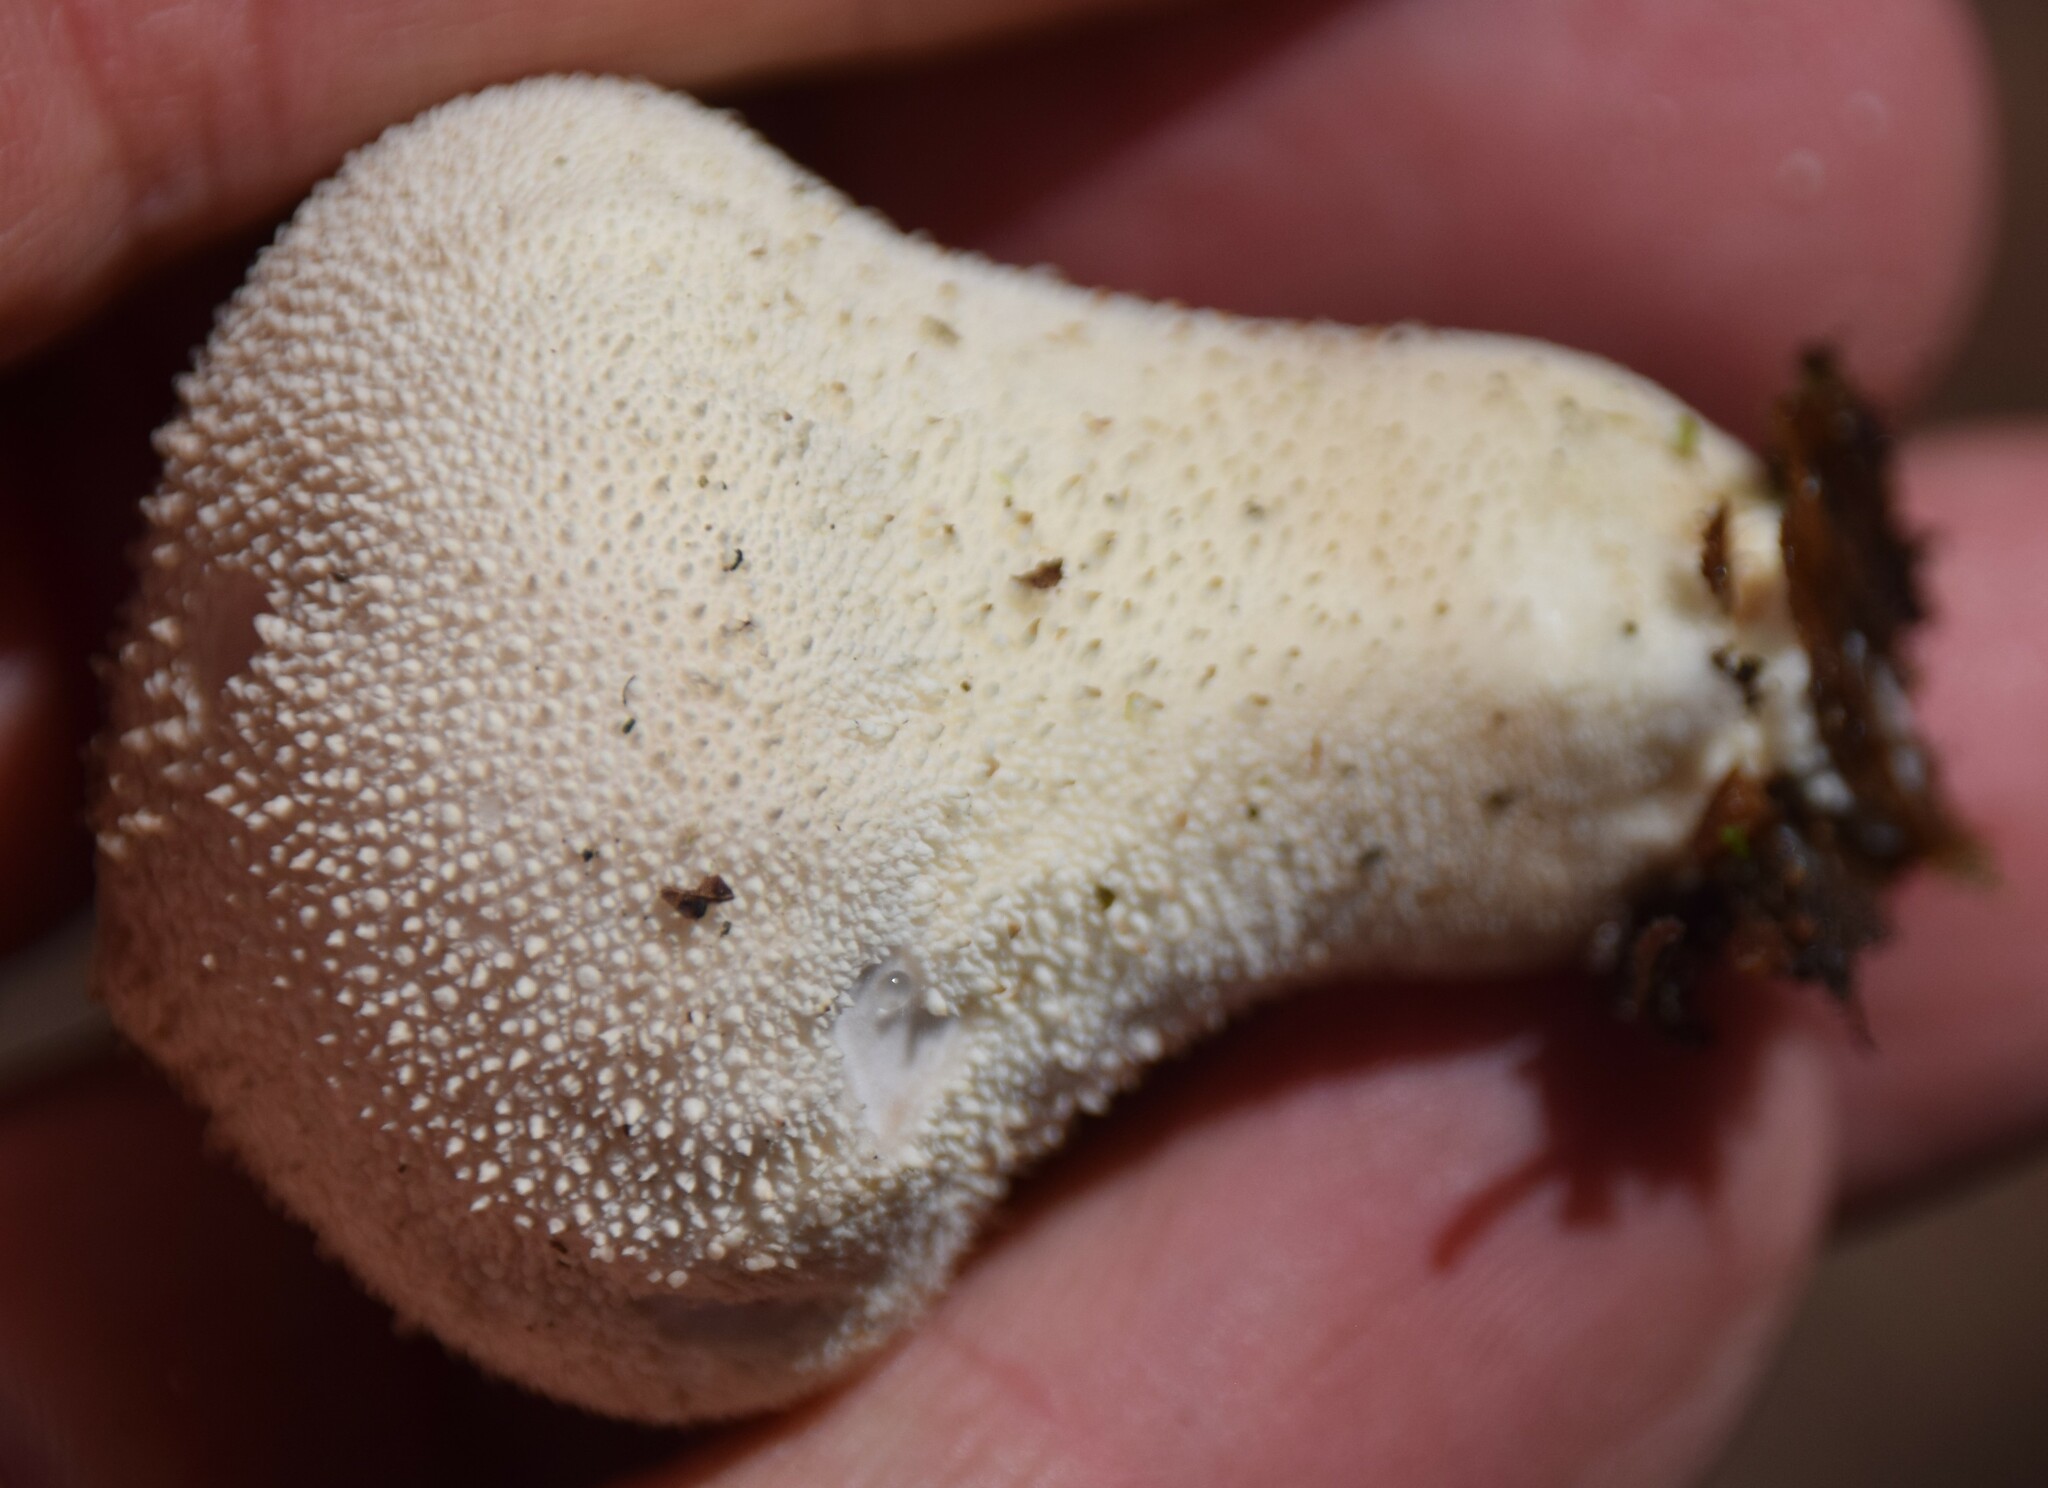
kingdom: Fungi
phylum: Basidiomycota
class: Agaricomycetes
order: Agaricales
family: Lycoperdaceae
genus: Lycoperdon
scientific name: Lycoperdon perlatum
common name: Common puffball
